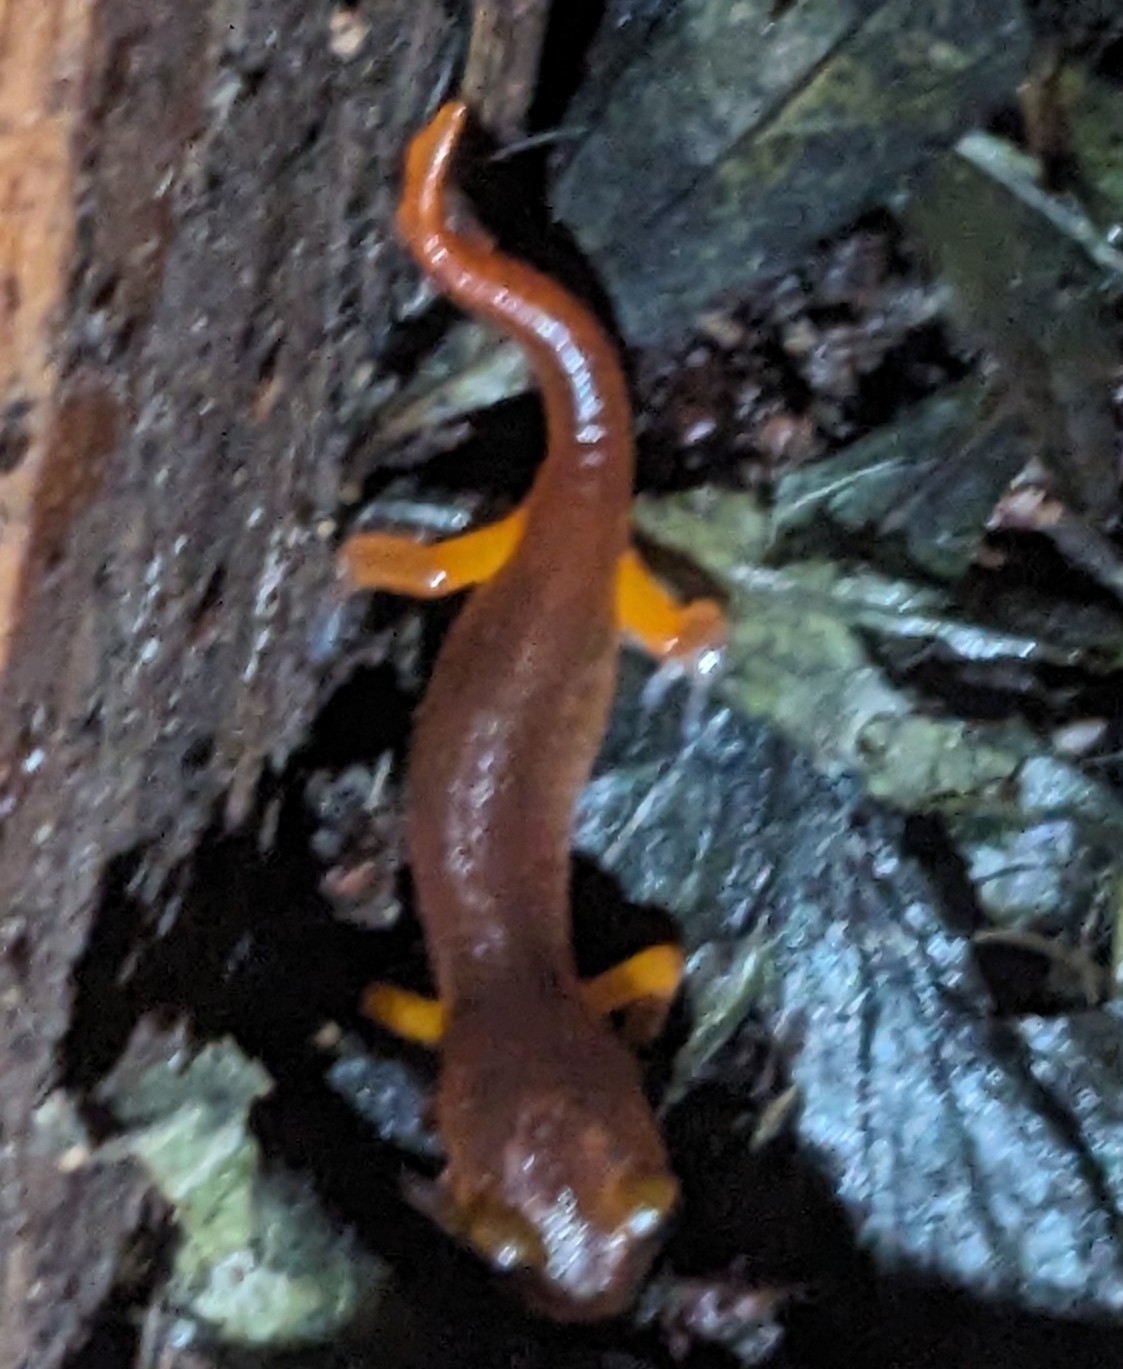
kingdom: Animalia
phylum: Chordata
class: Amphibia
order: Caudata
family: Plethodontidae
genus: Ensatina
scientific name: Ensatina eschscholtzii
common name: Ensatina
